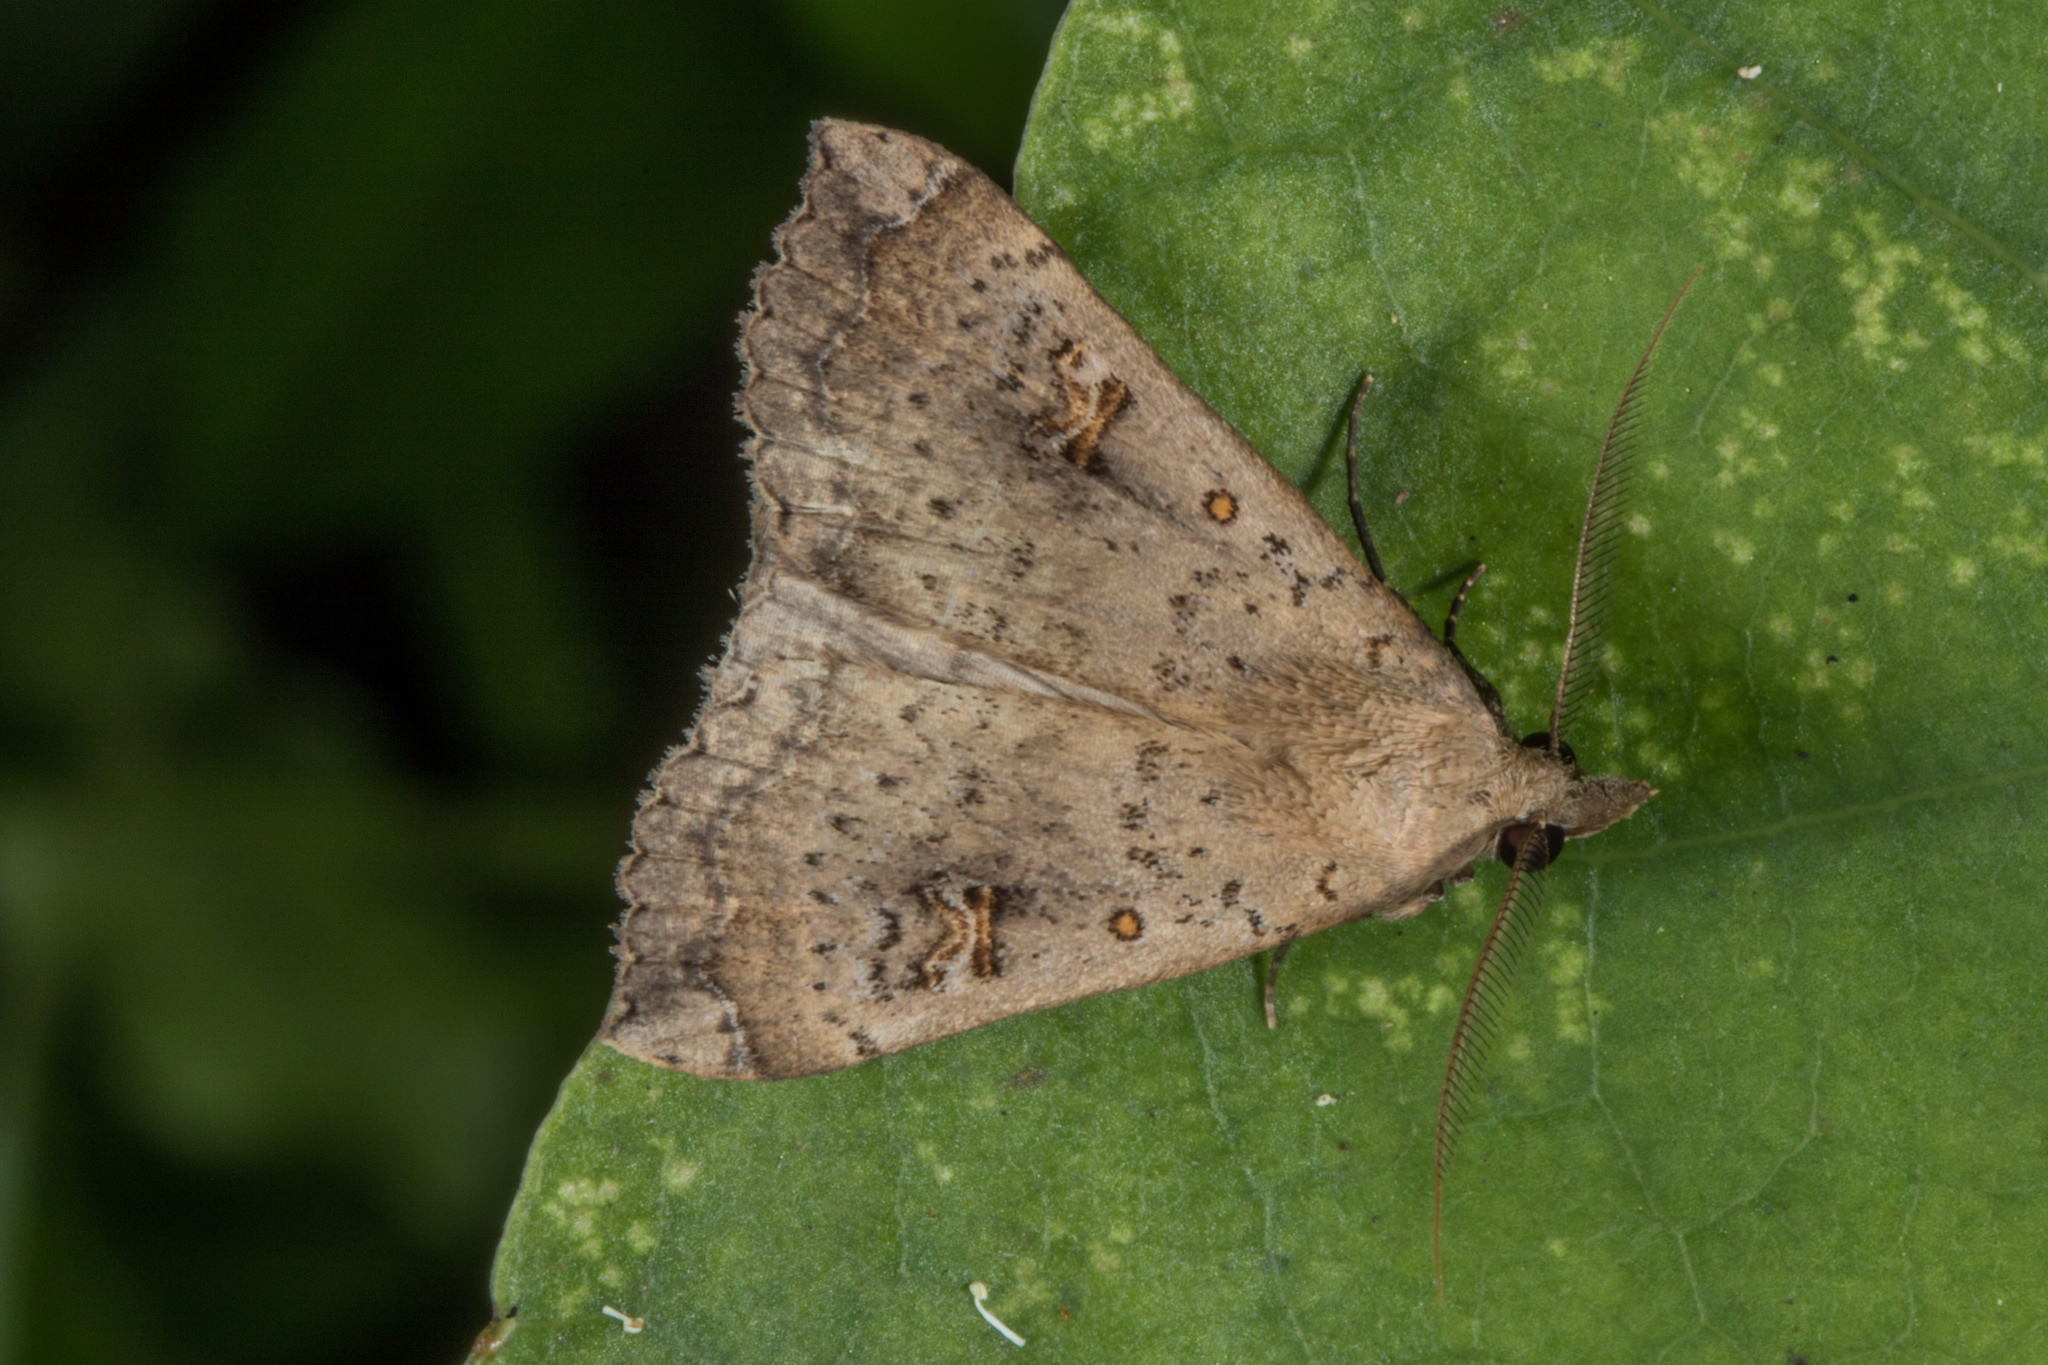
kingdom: Animalia
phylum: Arthropoda
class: Insecta
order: Lepidoptera
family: Erebidae
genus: Rhapsa
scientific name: Rhapsa scotosialis
